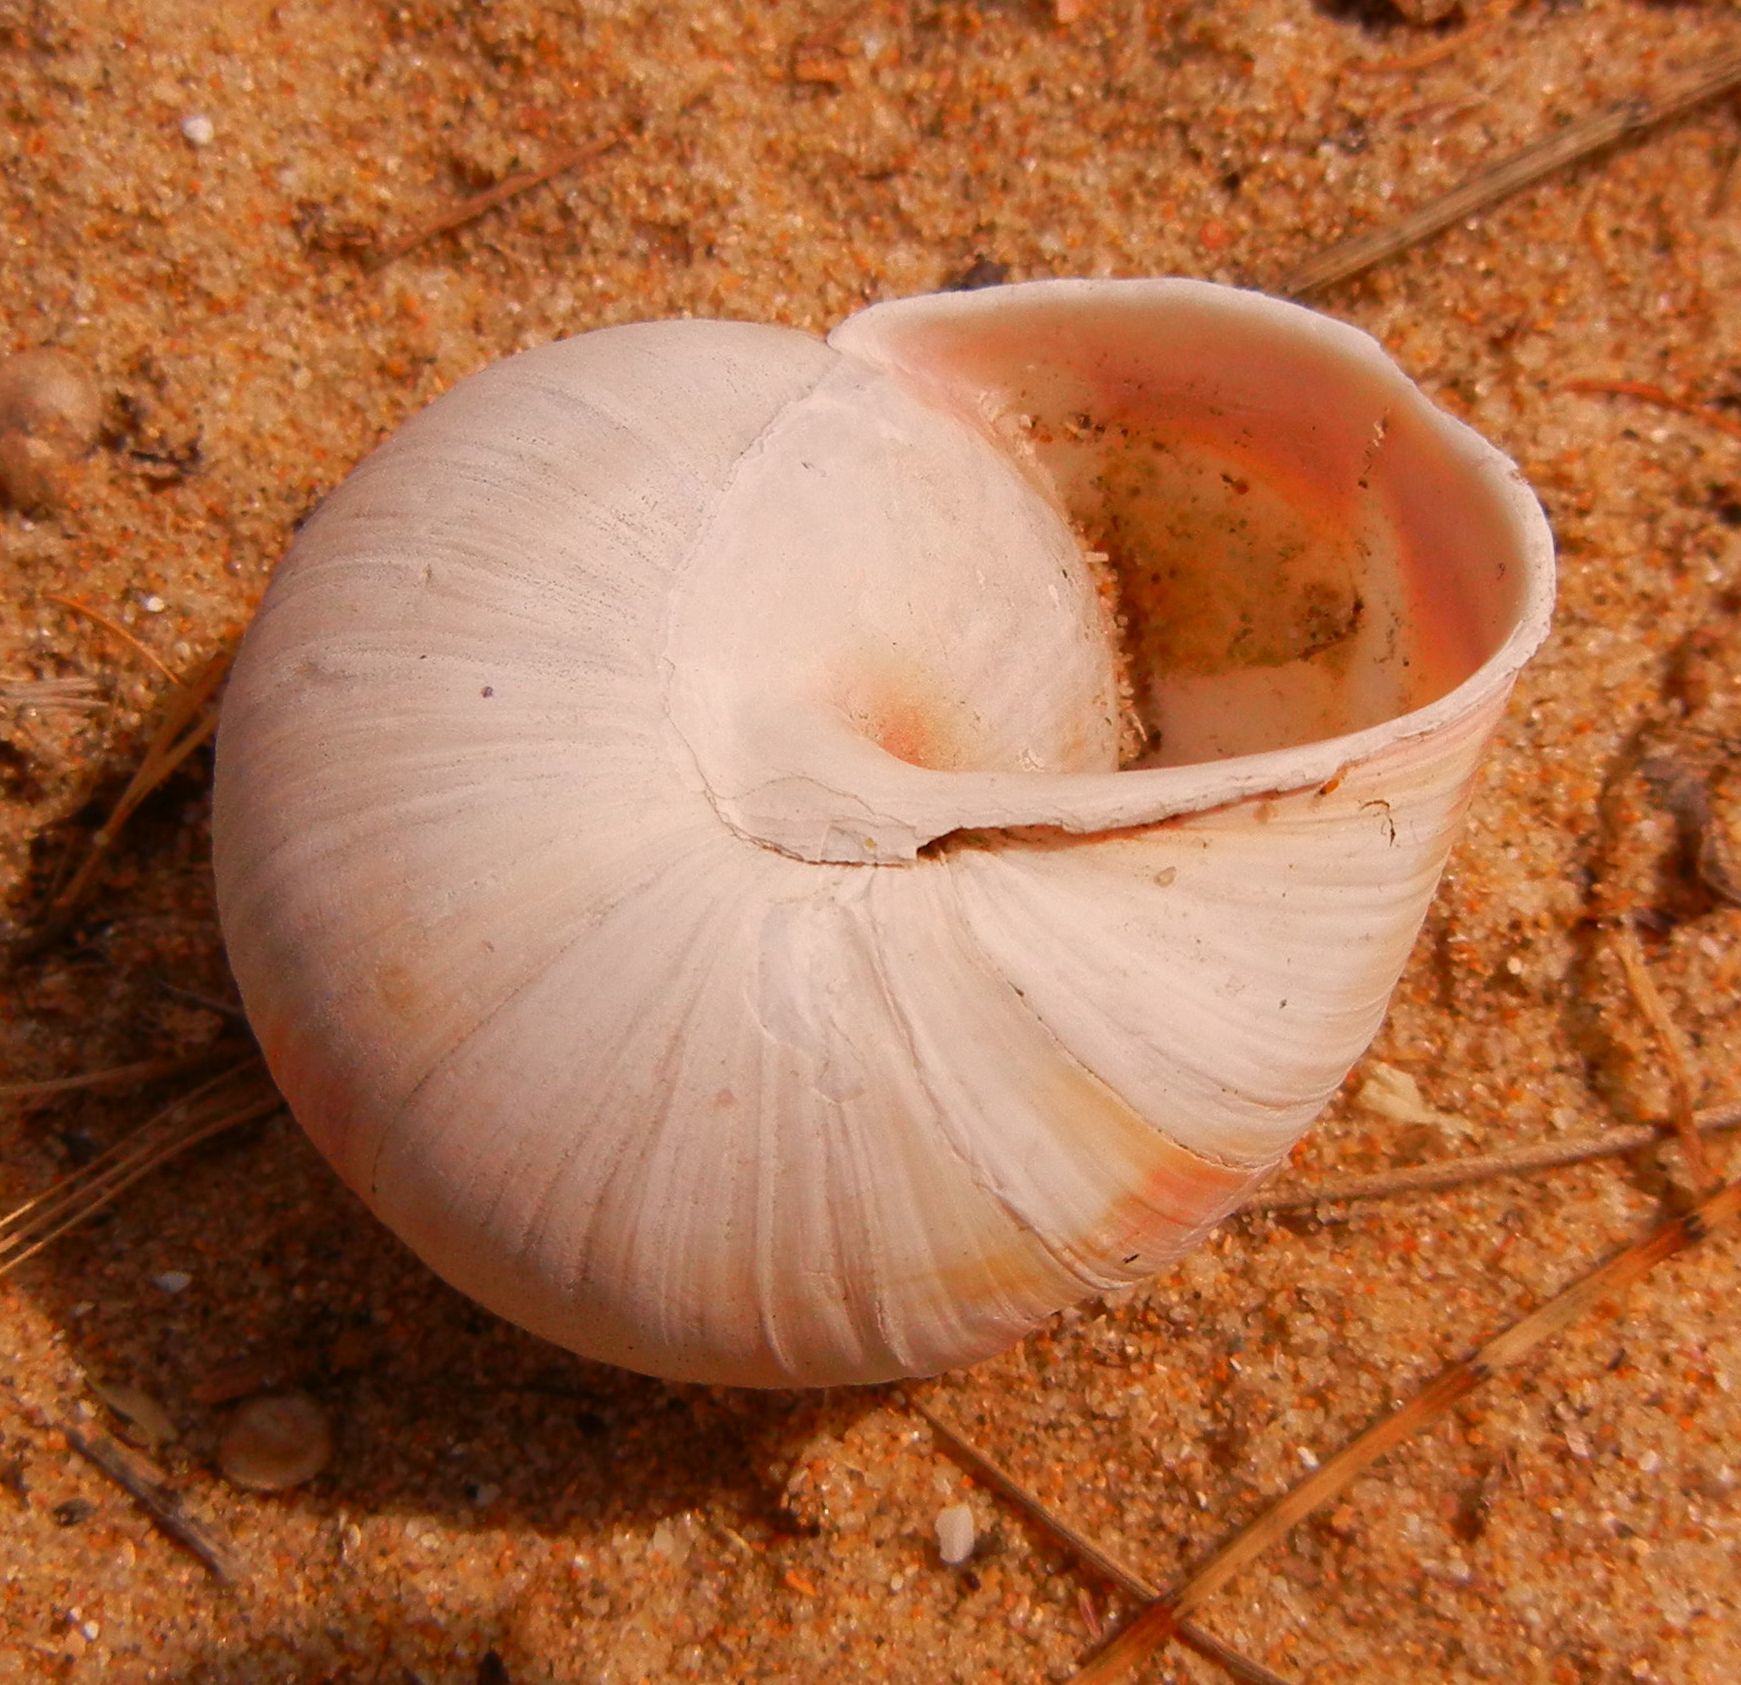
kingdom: Animalia
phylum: Mollusca
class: Gastropoda
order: Stylommatophora
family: Helicidae
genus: Helix
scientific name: Helix lucorum
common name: Turkish snail
